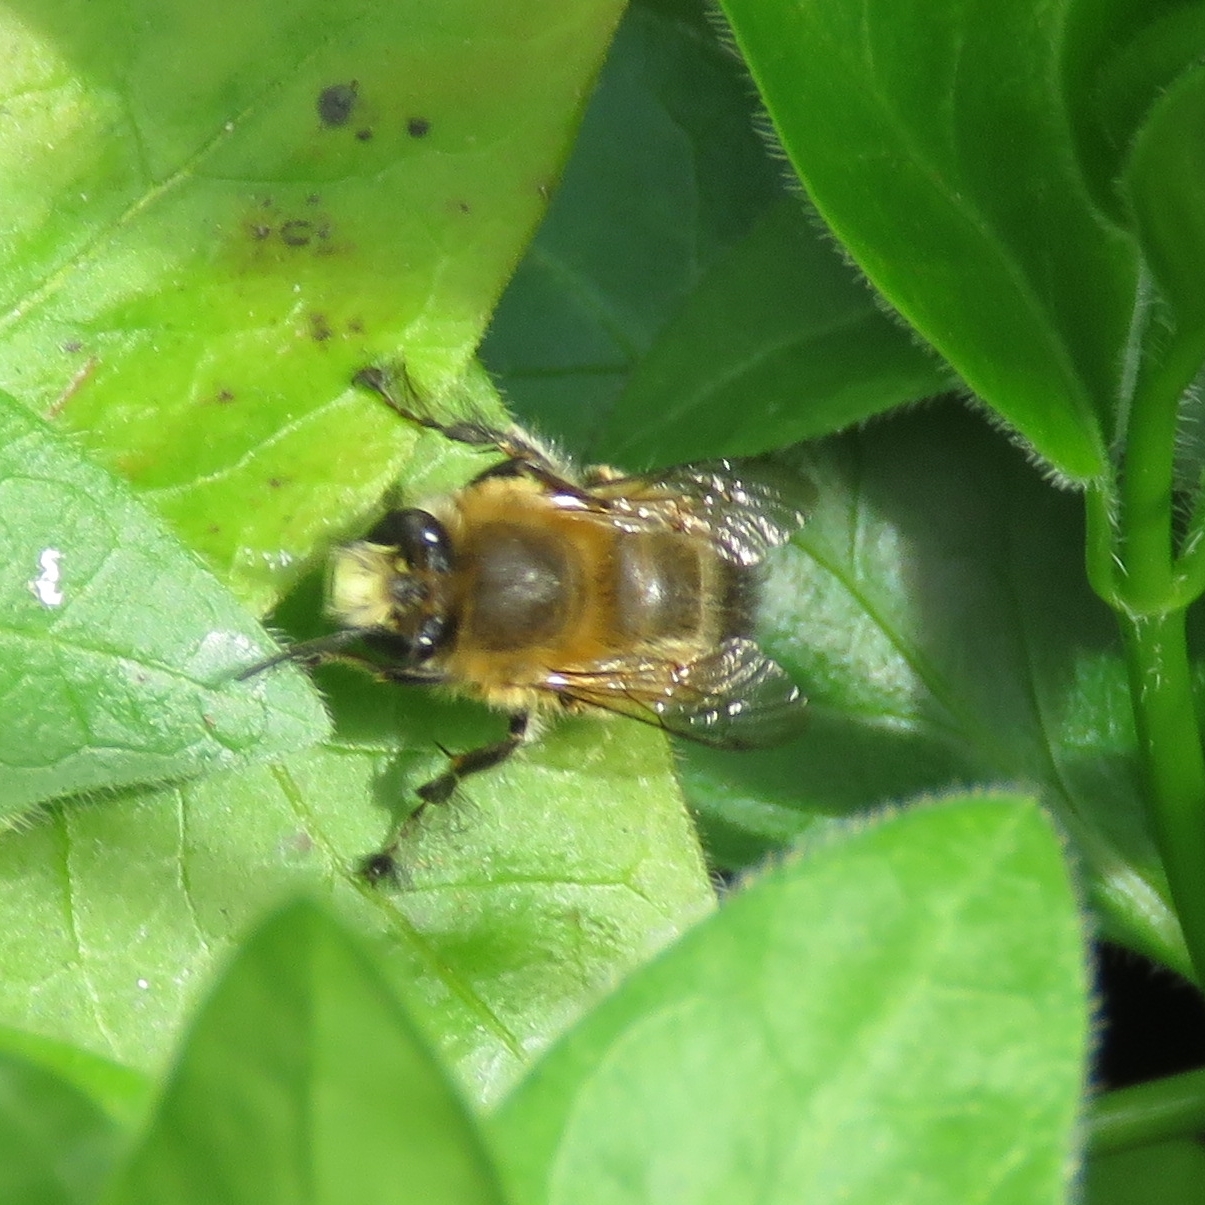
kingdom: Animalia
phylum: Arthropoda
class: Insecta
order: Hymenoptera
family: Apidae
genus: Anthophora
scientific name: Anthophora plumipes
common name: Hairy-footed flower bee
